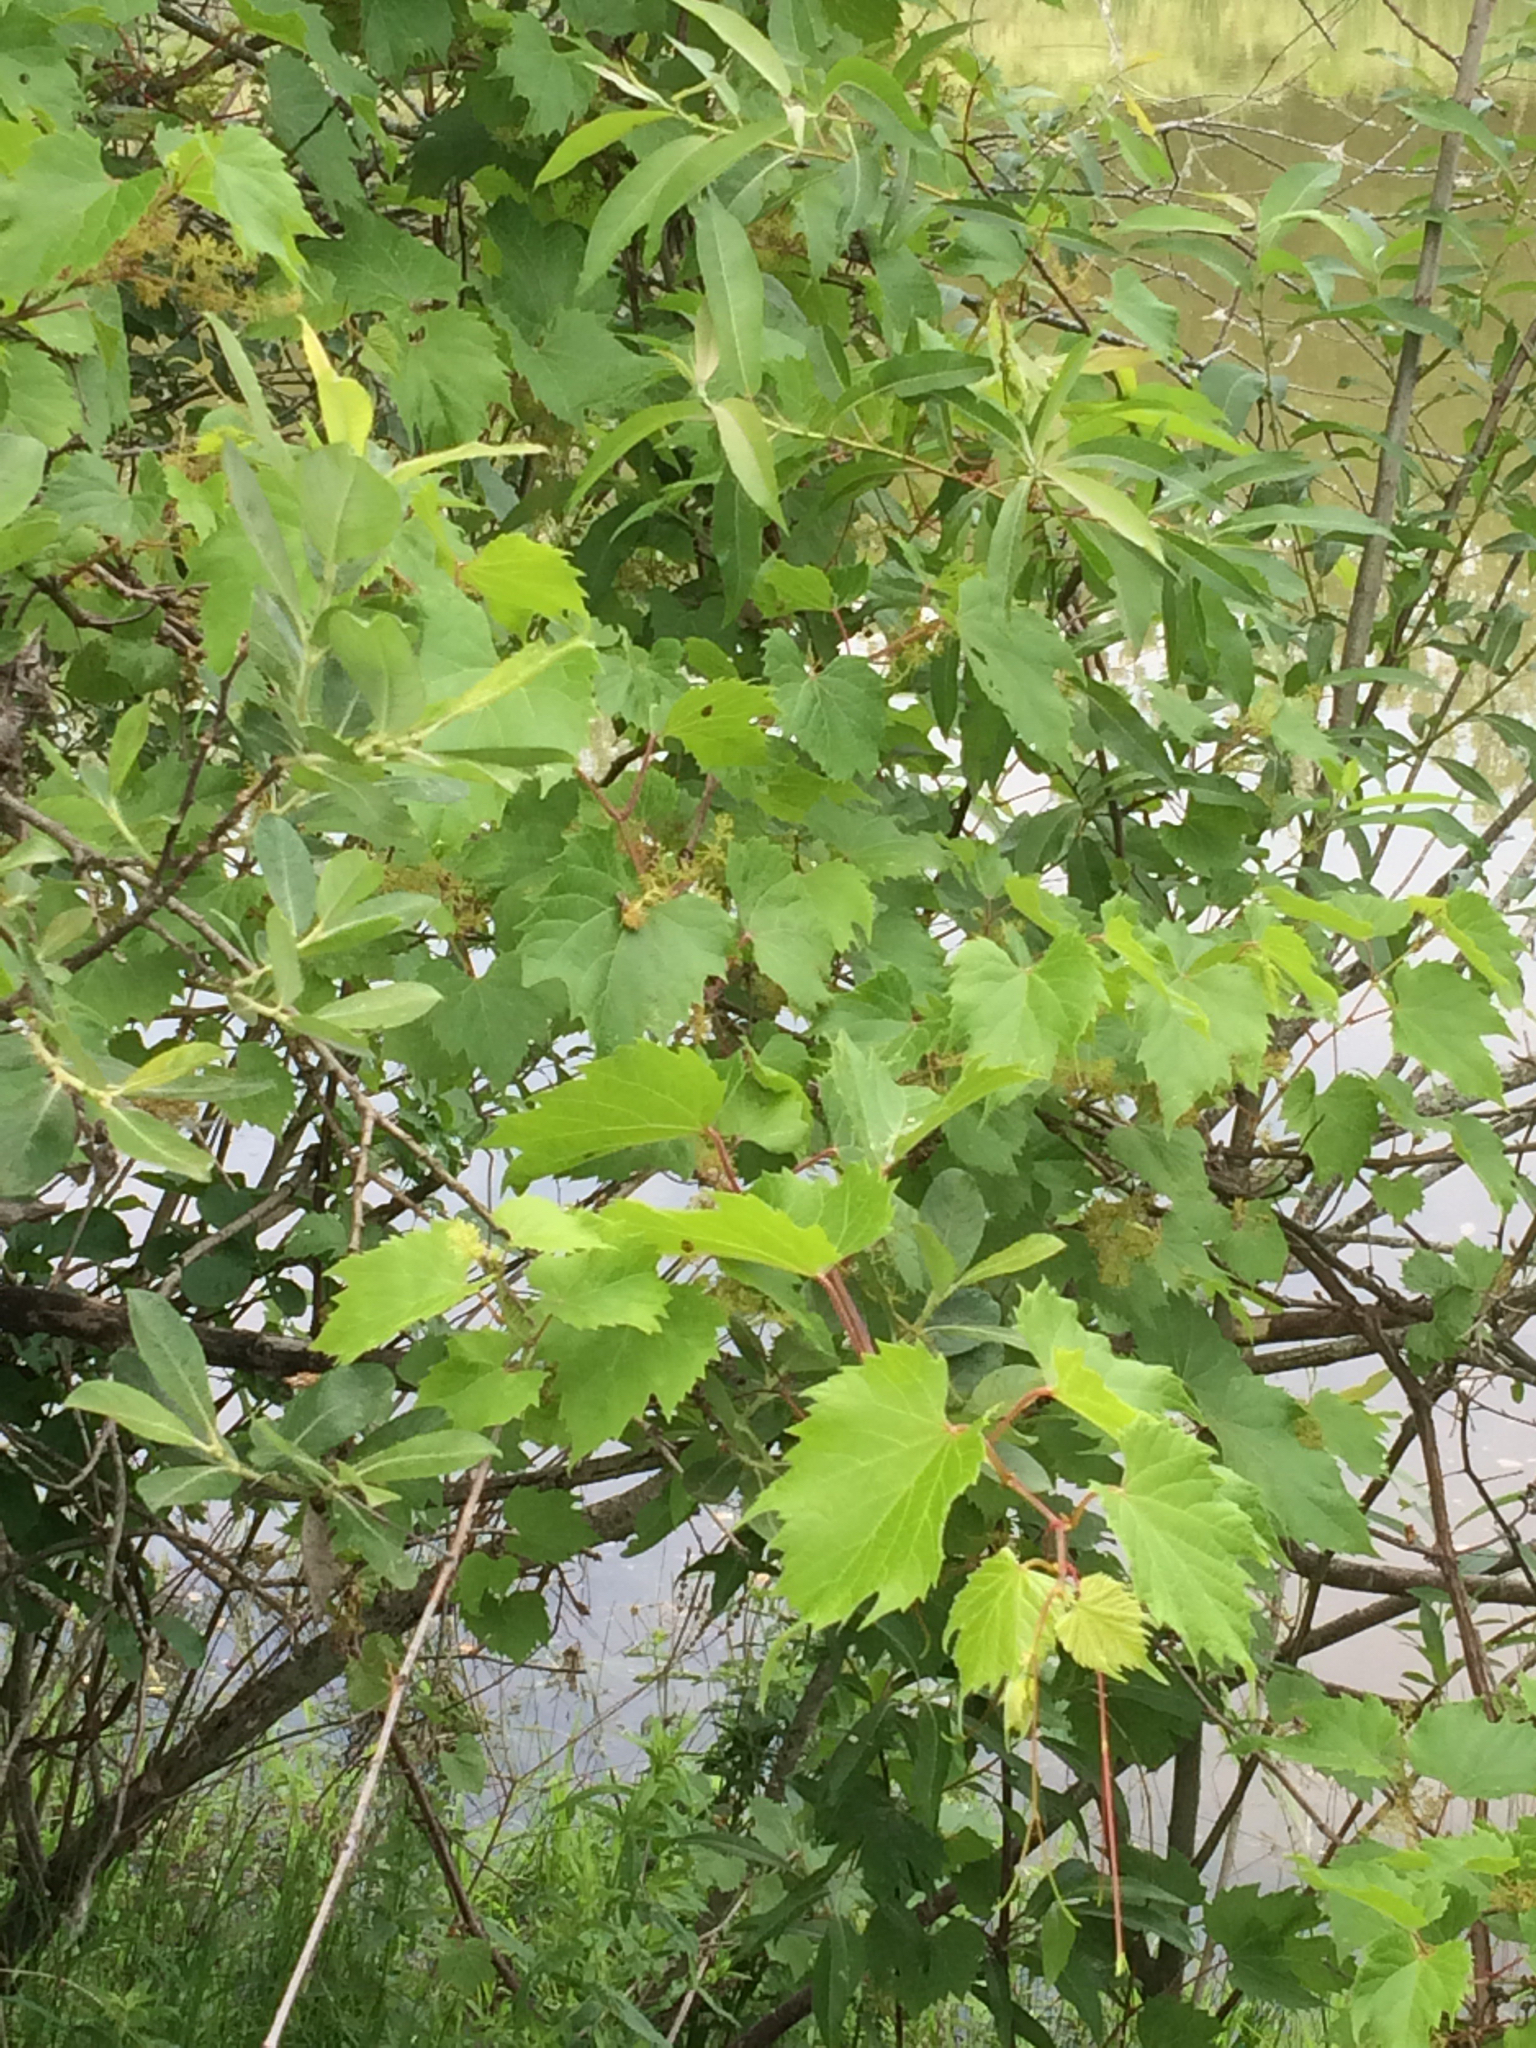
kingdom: Plantae
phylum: Tracheophyta
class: Magnoliopsida
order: Vitales
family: Vitaceae
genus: Vitis
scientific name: Vitis riparia
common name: Frost grape
